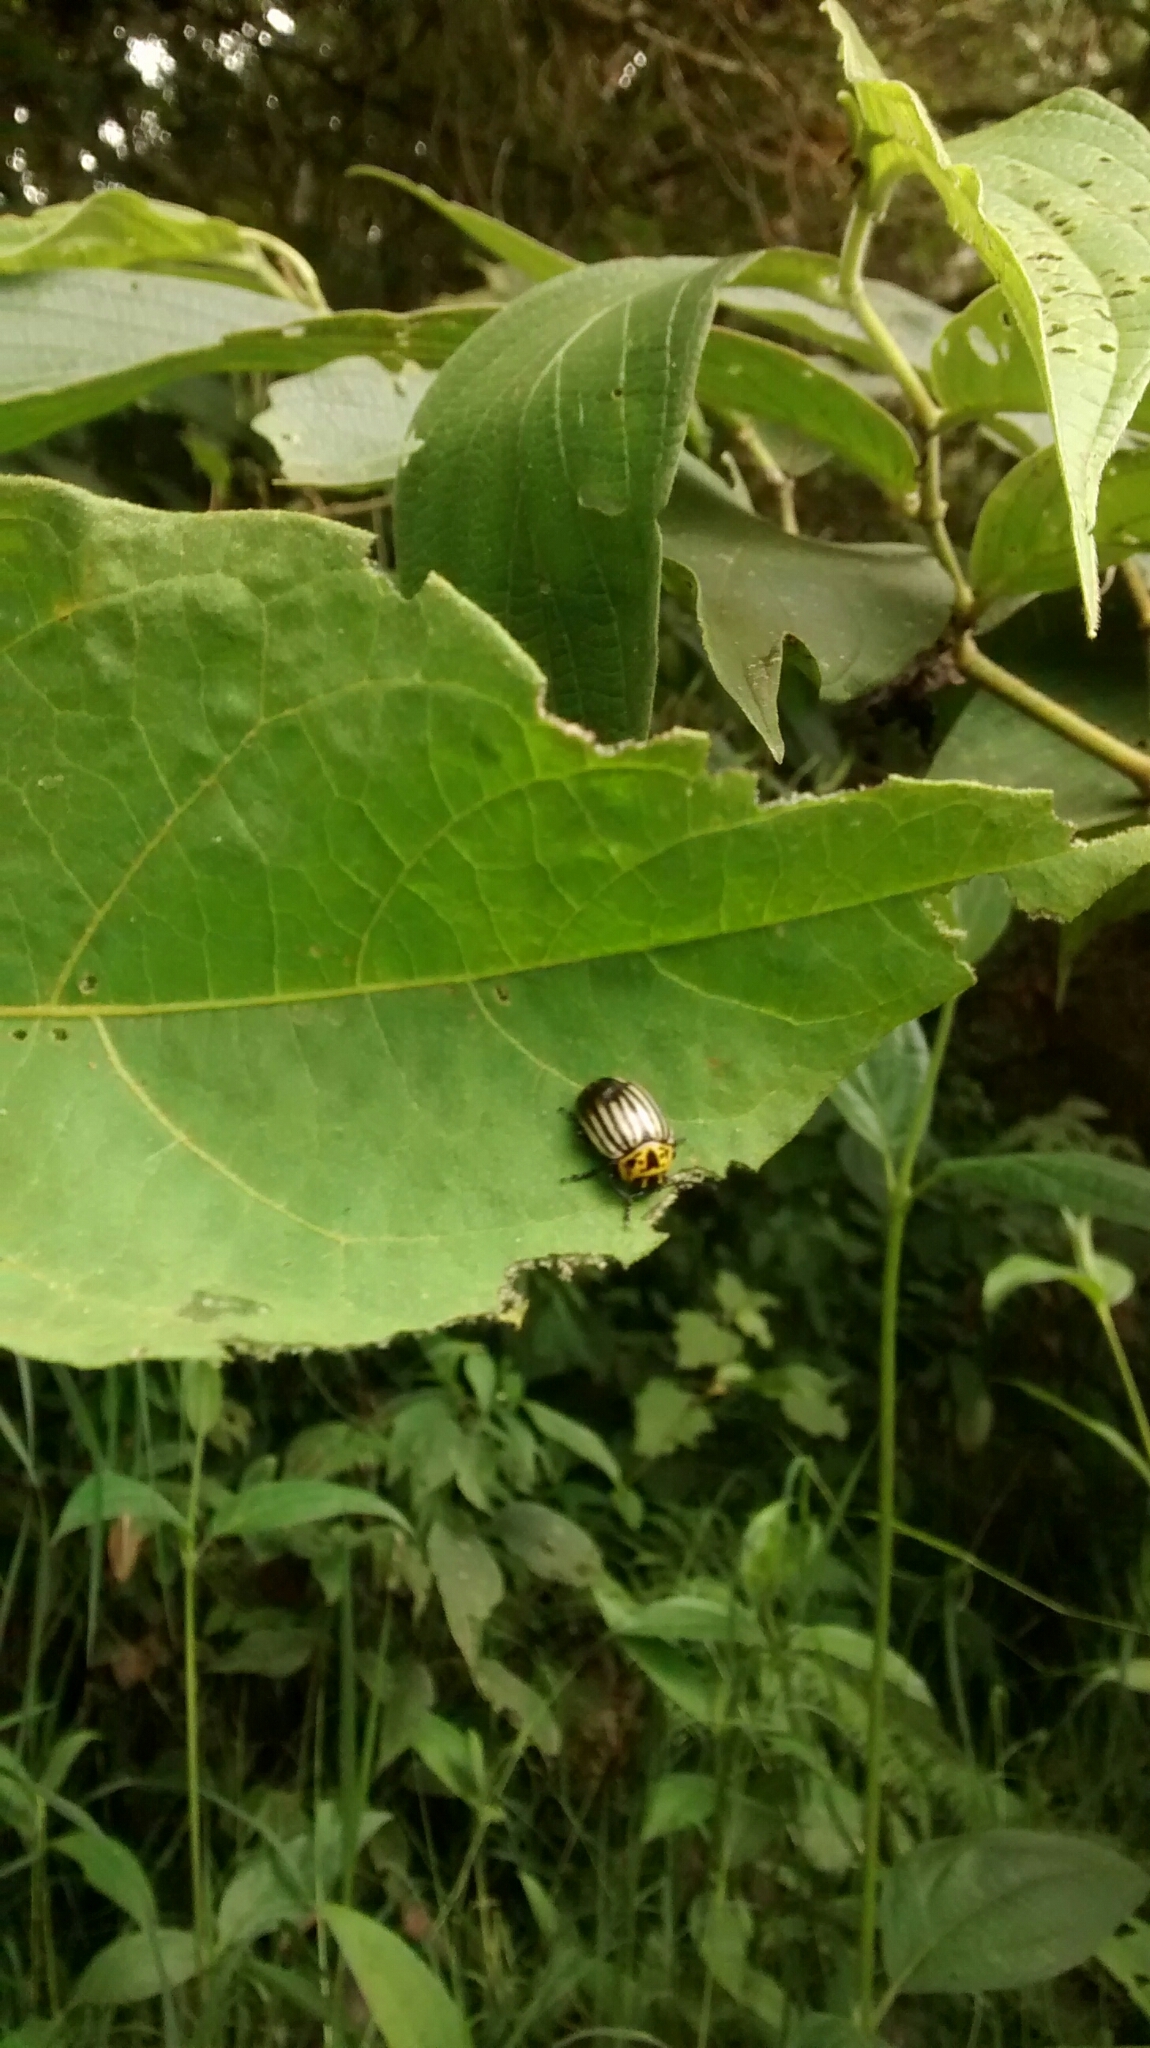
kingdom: Animalia
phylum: Arthropoda
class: Insecta
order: Coleoptera
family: Chrysomelidae
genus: Leptinotarsa
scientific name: Leptinotarsa
